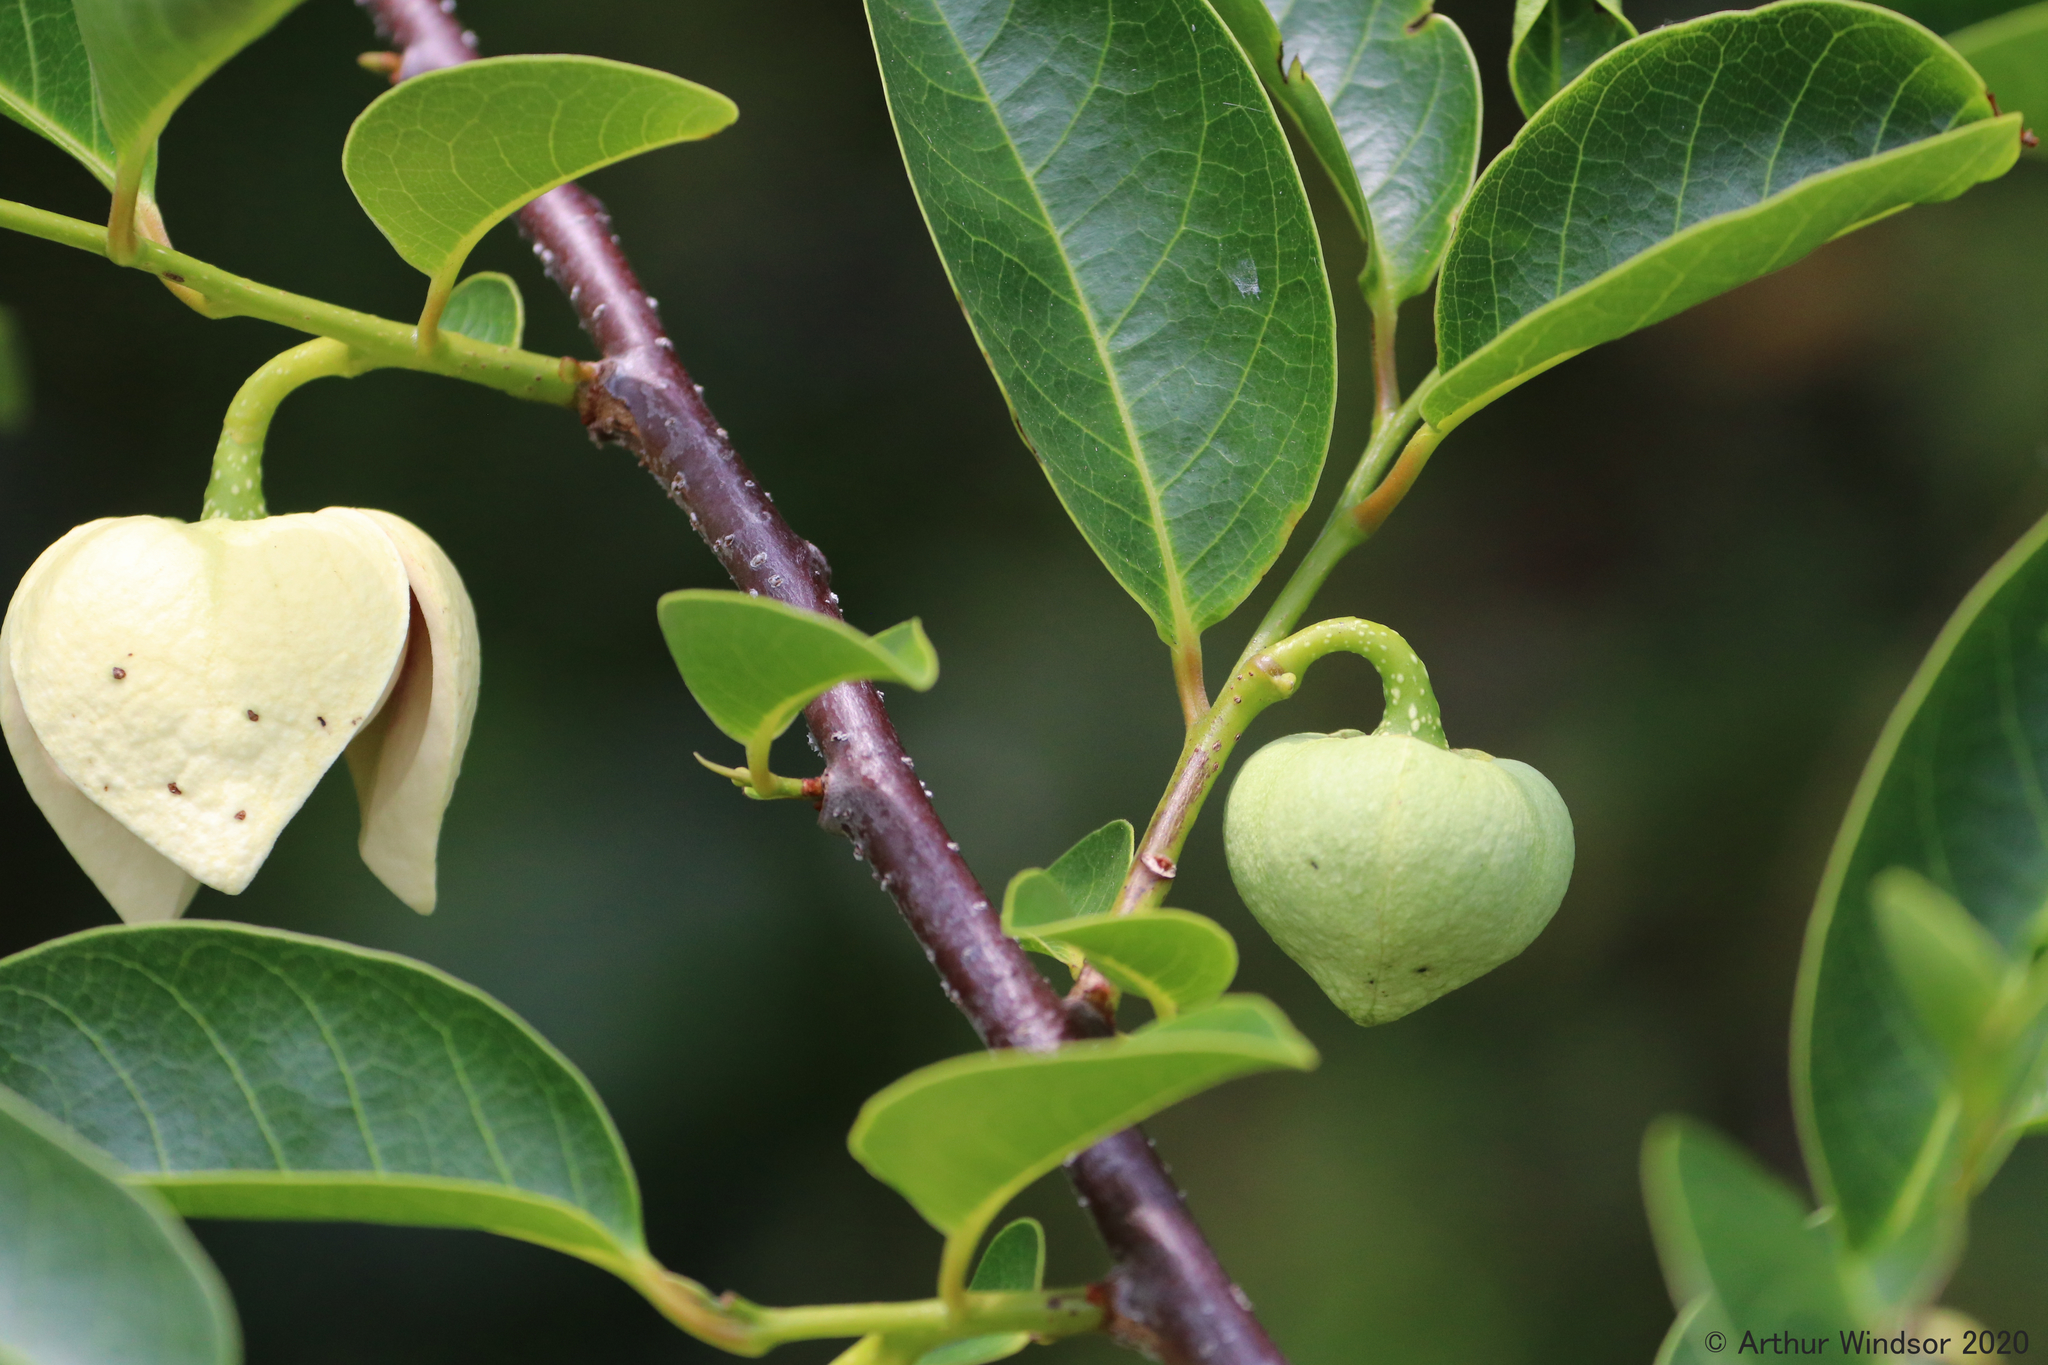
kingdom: Plantae
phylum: Tracheophyta
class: Magnoliopsida
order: Magnoliales
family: Annonaceae
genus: Annona
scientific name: Annona glabra
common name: Monkey apple
